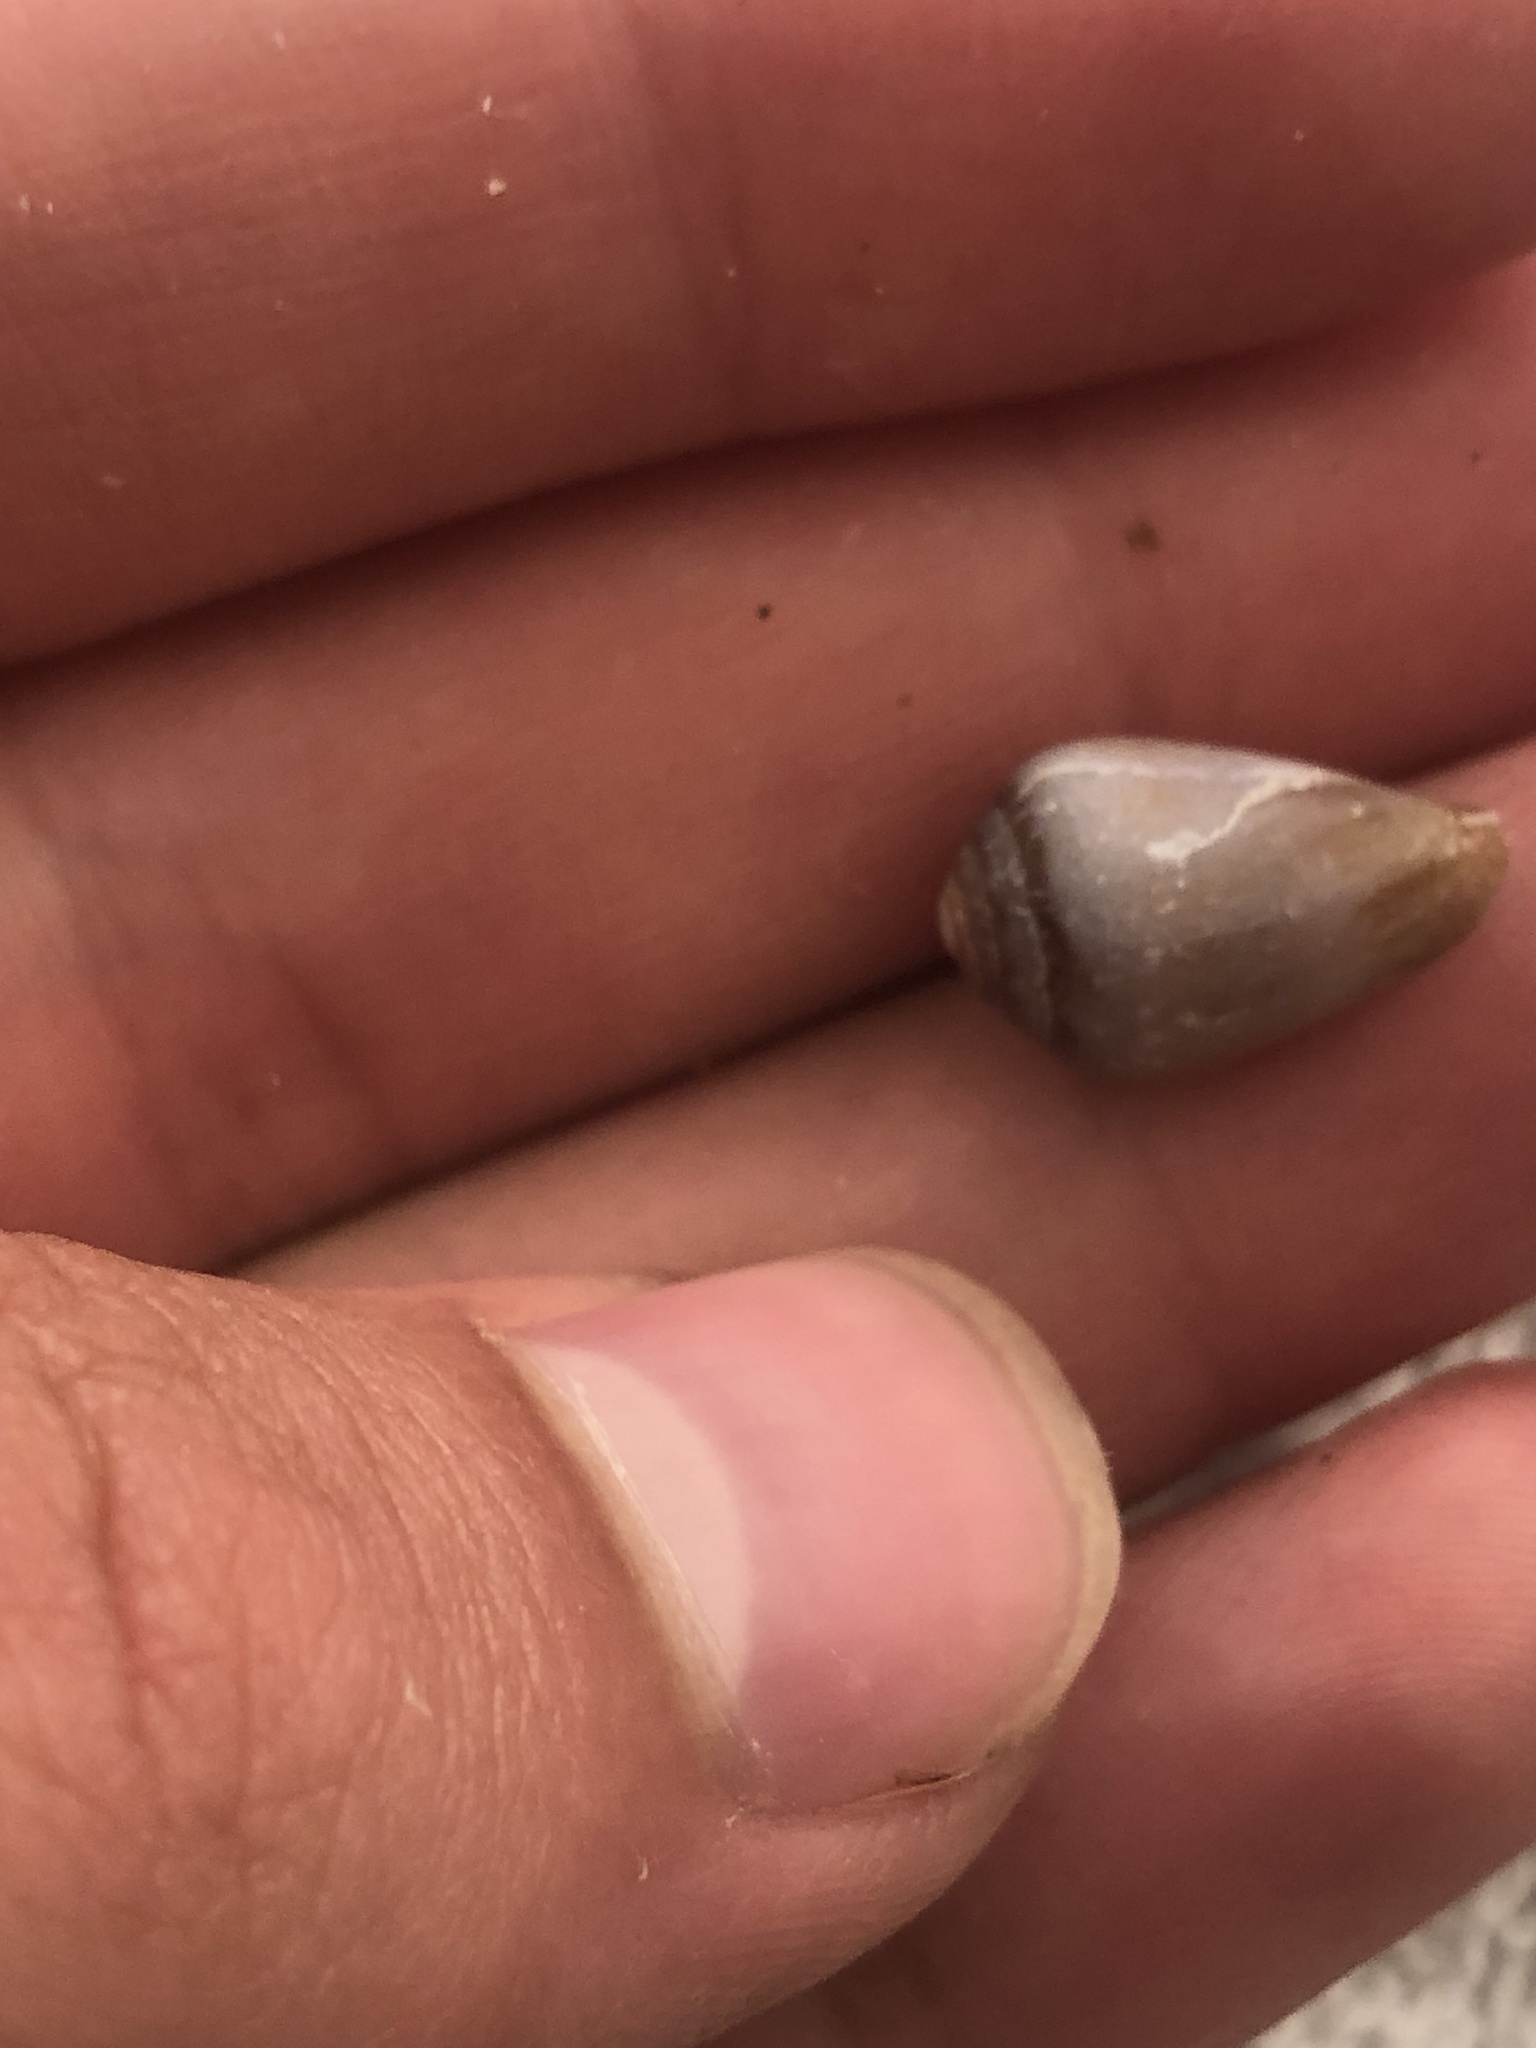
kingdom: Animalia
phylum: Mollusca
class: Gastropoda
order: Neogastropoda
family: Conidae
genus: Californiconus
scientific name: Californiconus californicus
